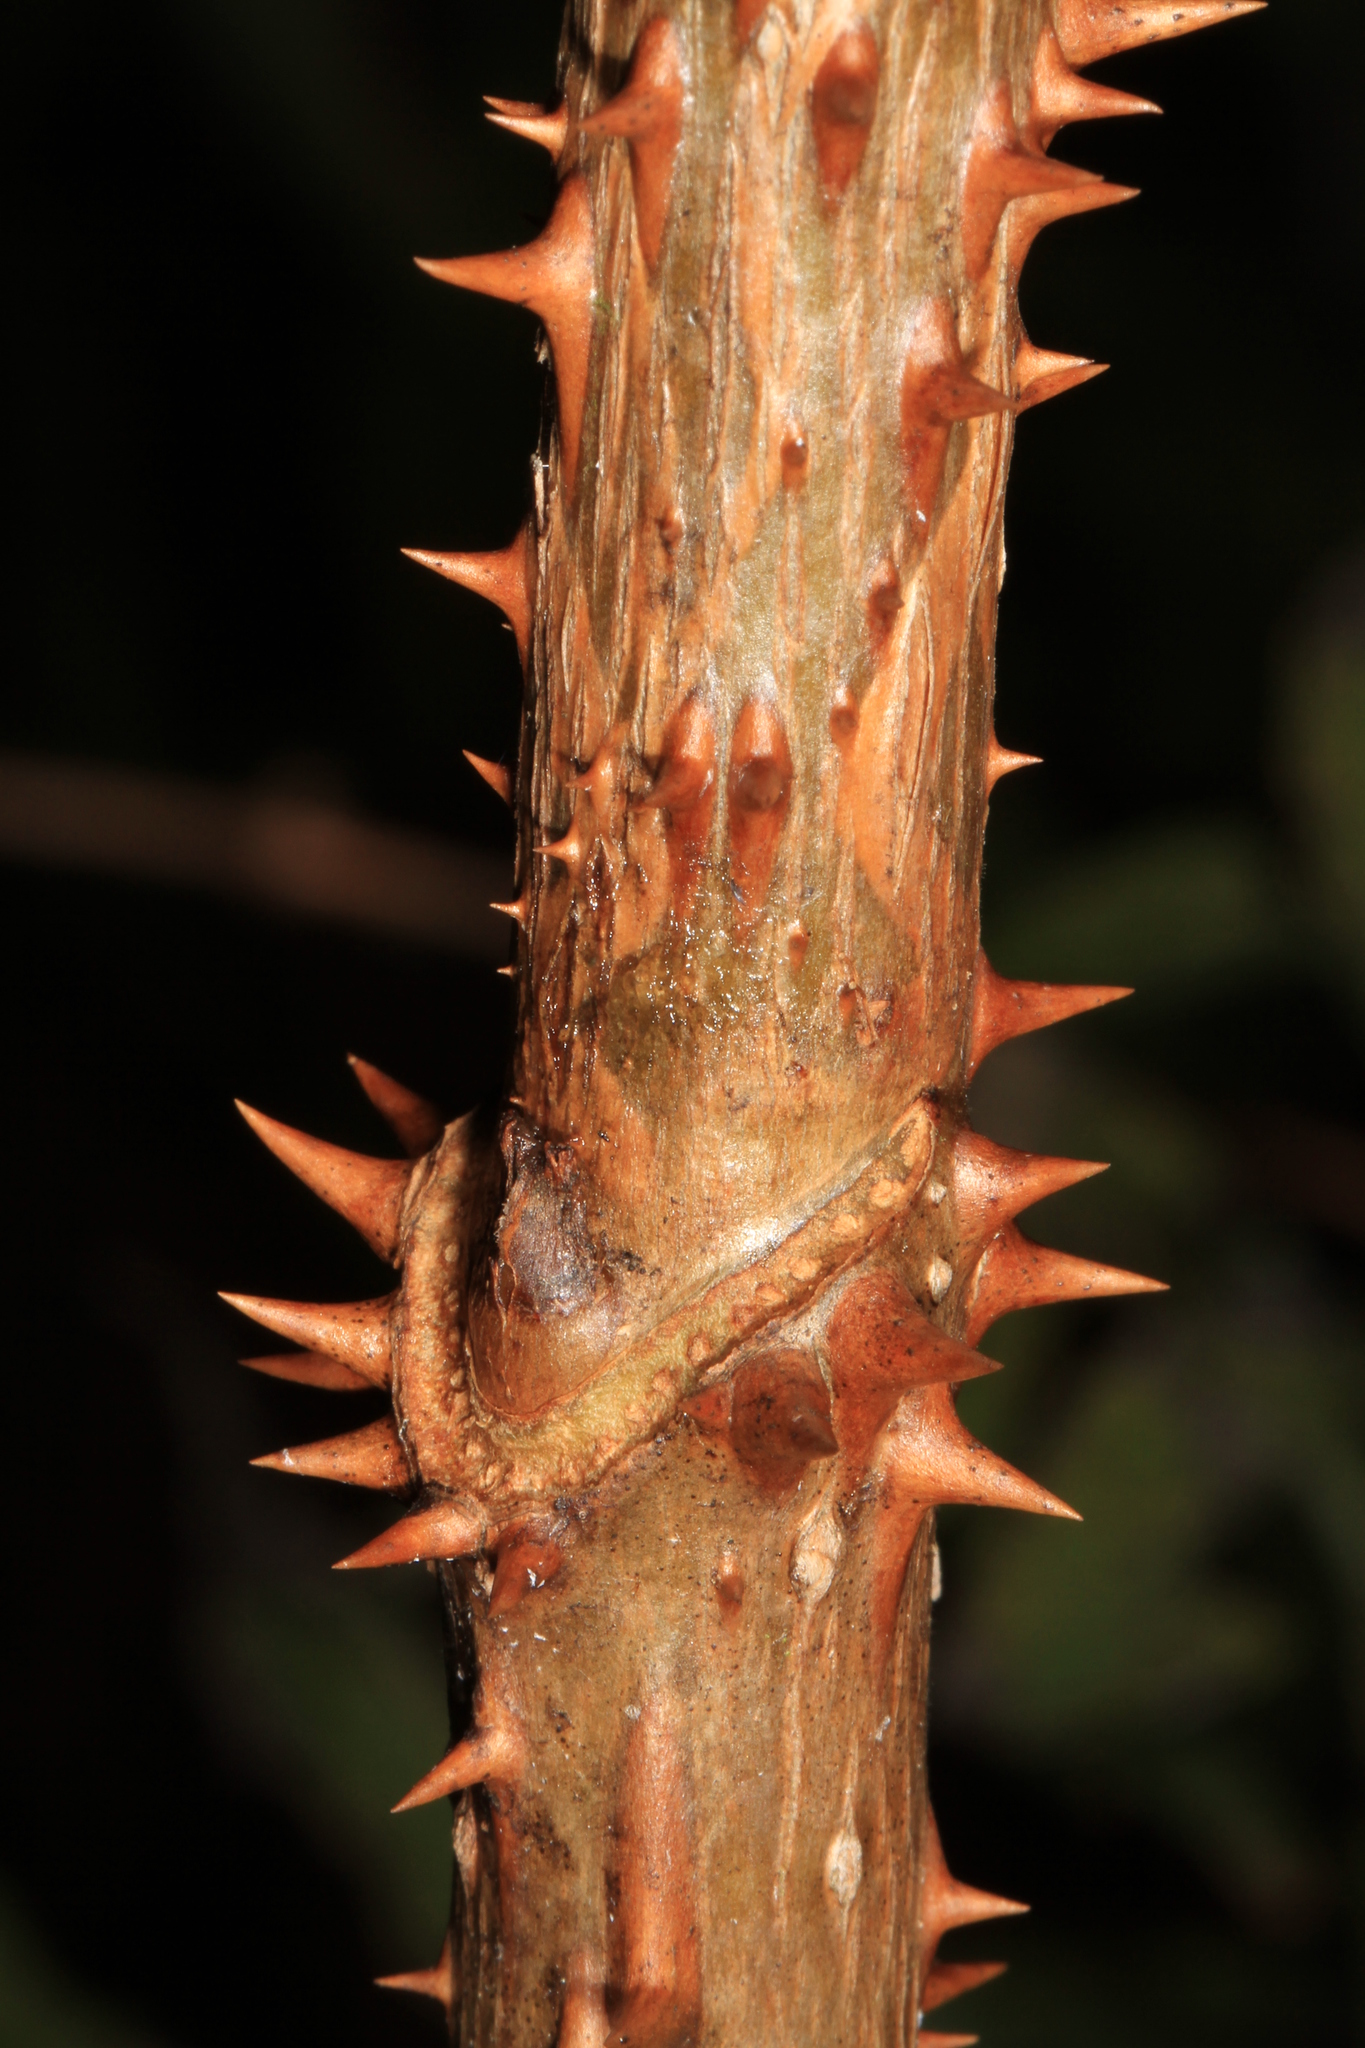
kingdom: Plantae
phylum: Tracheophyta
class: Magnoliopsida
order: Apiales
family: Araliaceae
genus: Aralia
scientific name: Aralia spinosa
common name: Hercules'-club
